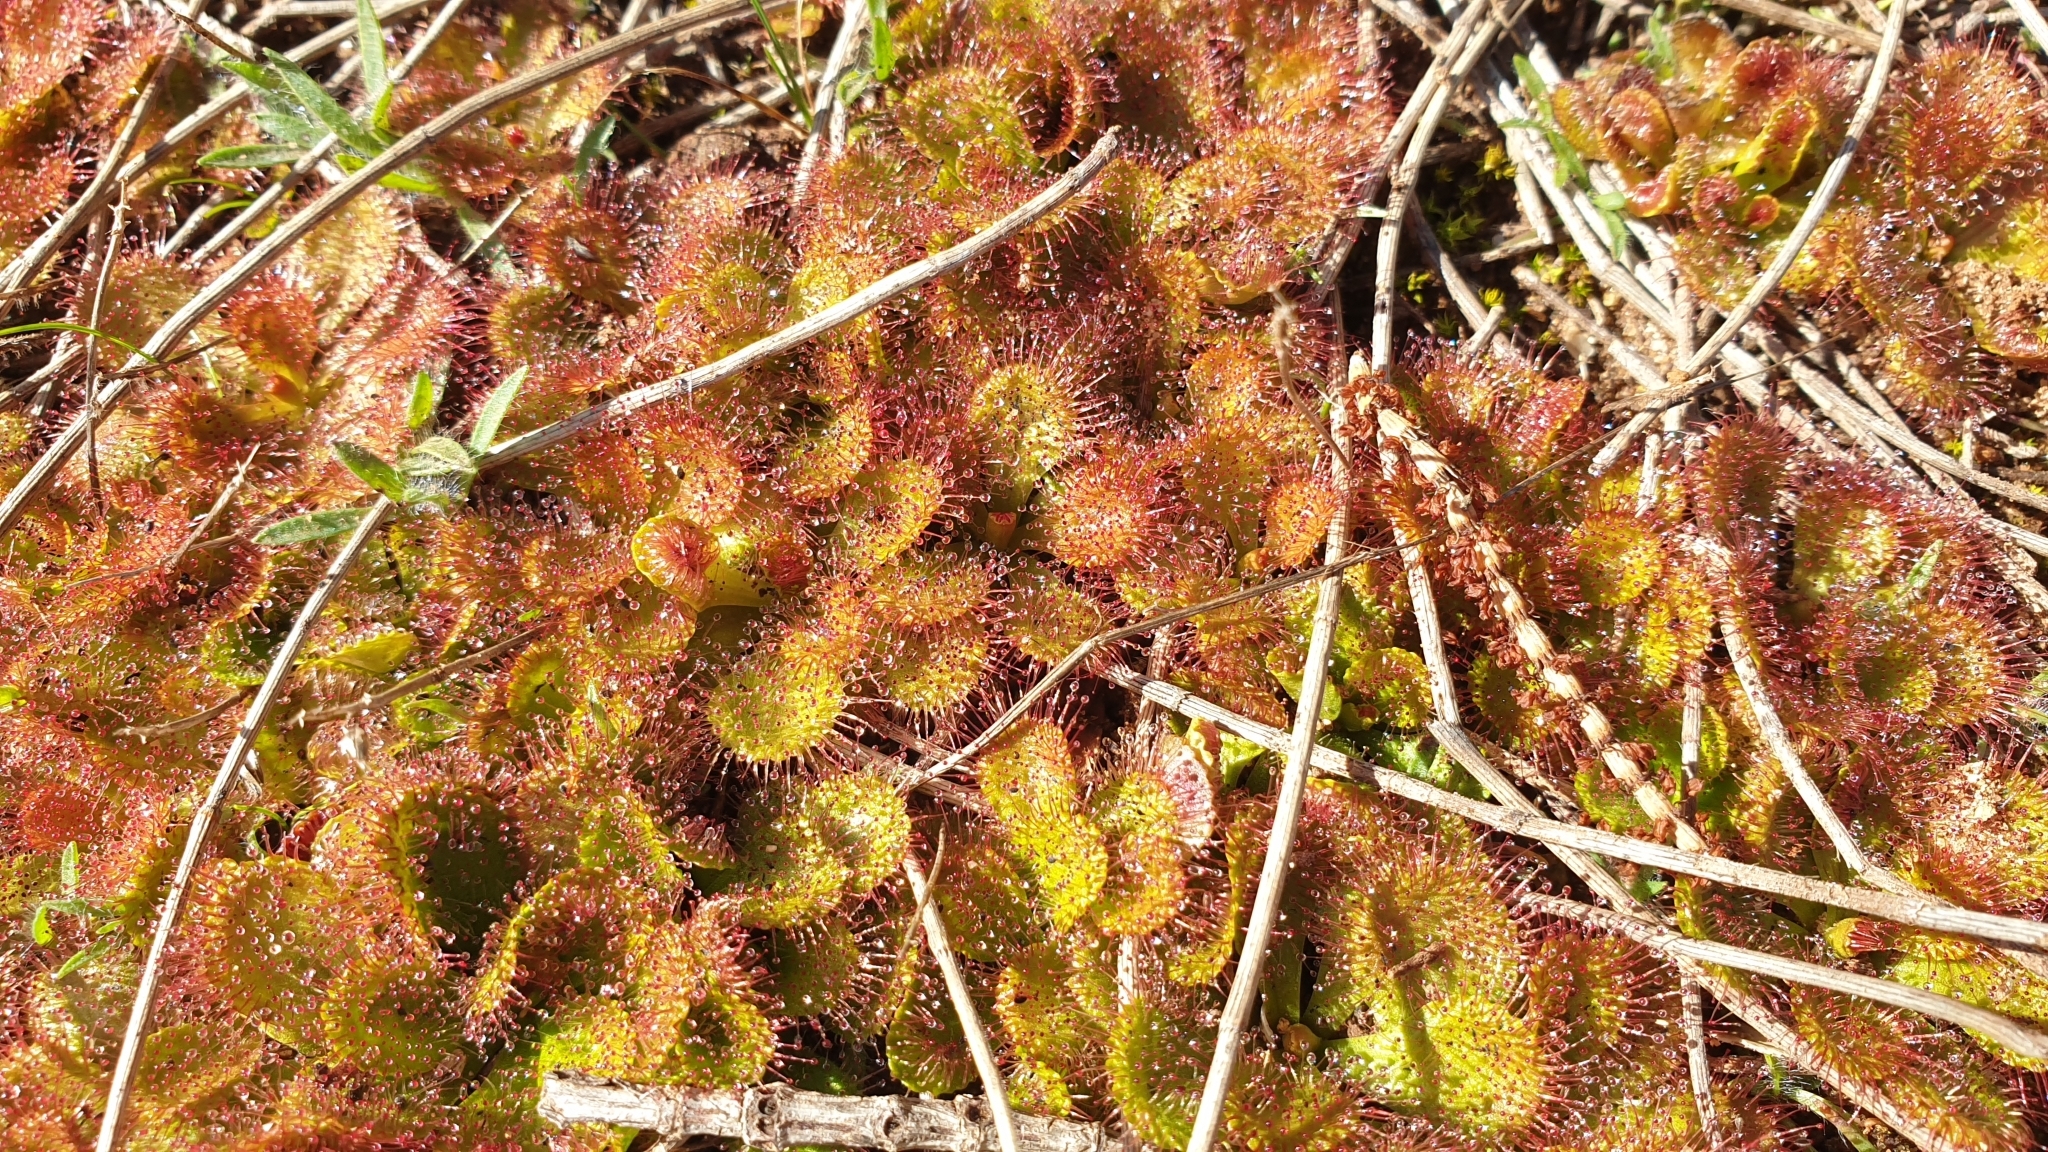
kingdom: Plantae
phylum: Tracheophyta
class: Magnoliopsida
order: Caryophyllales
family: Droseraceae
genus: Drosera
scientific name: Drosera aberrans
